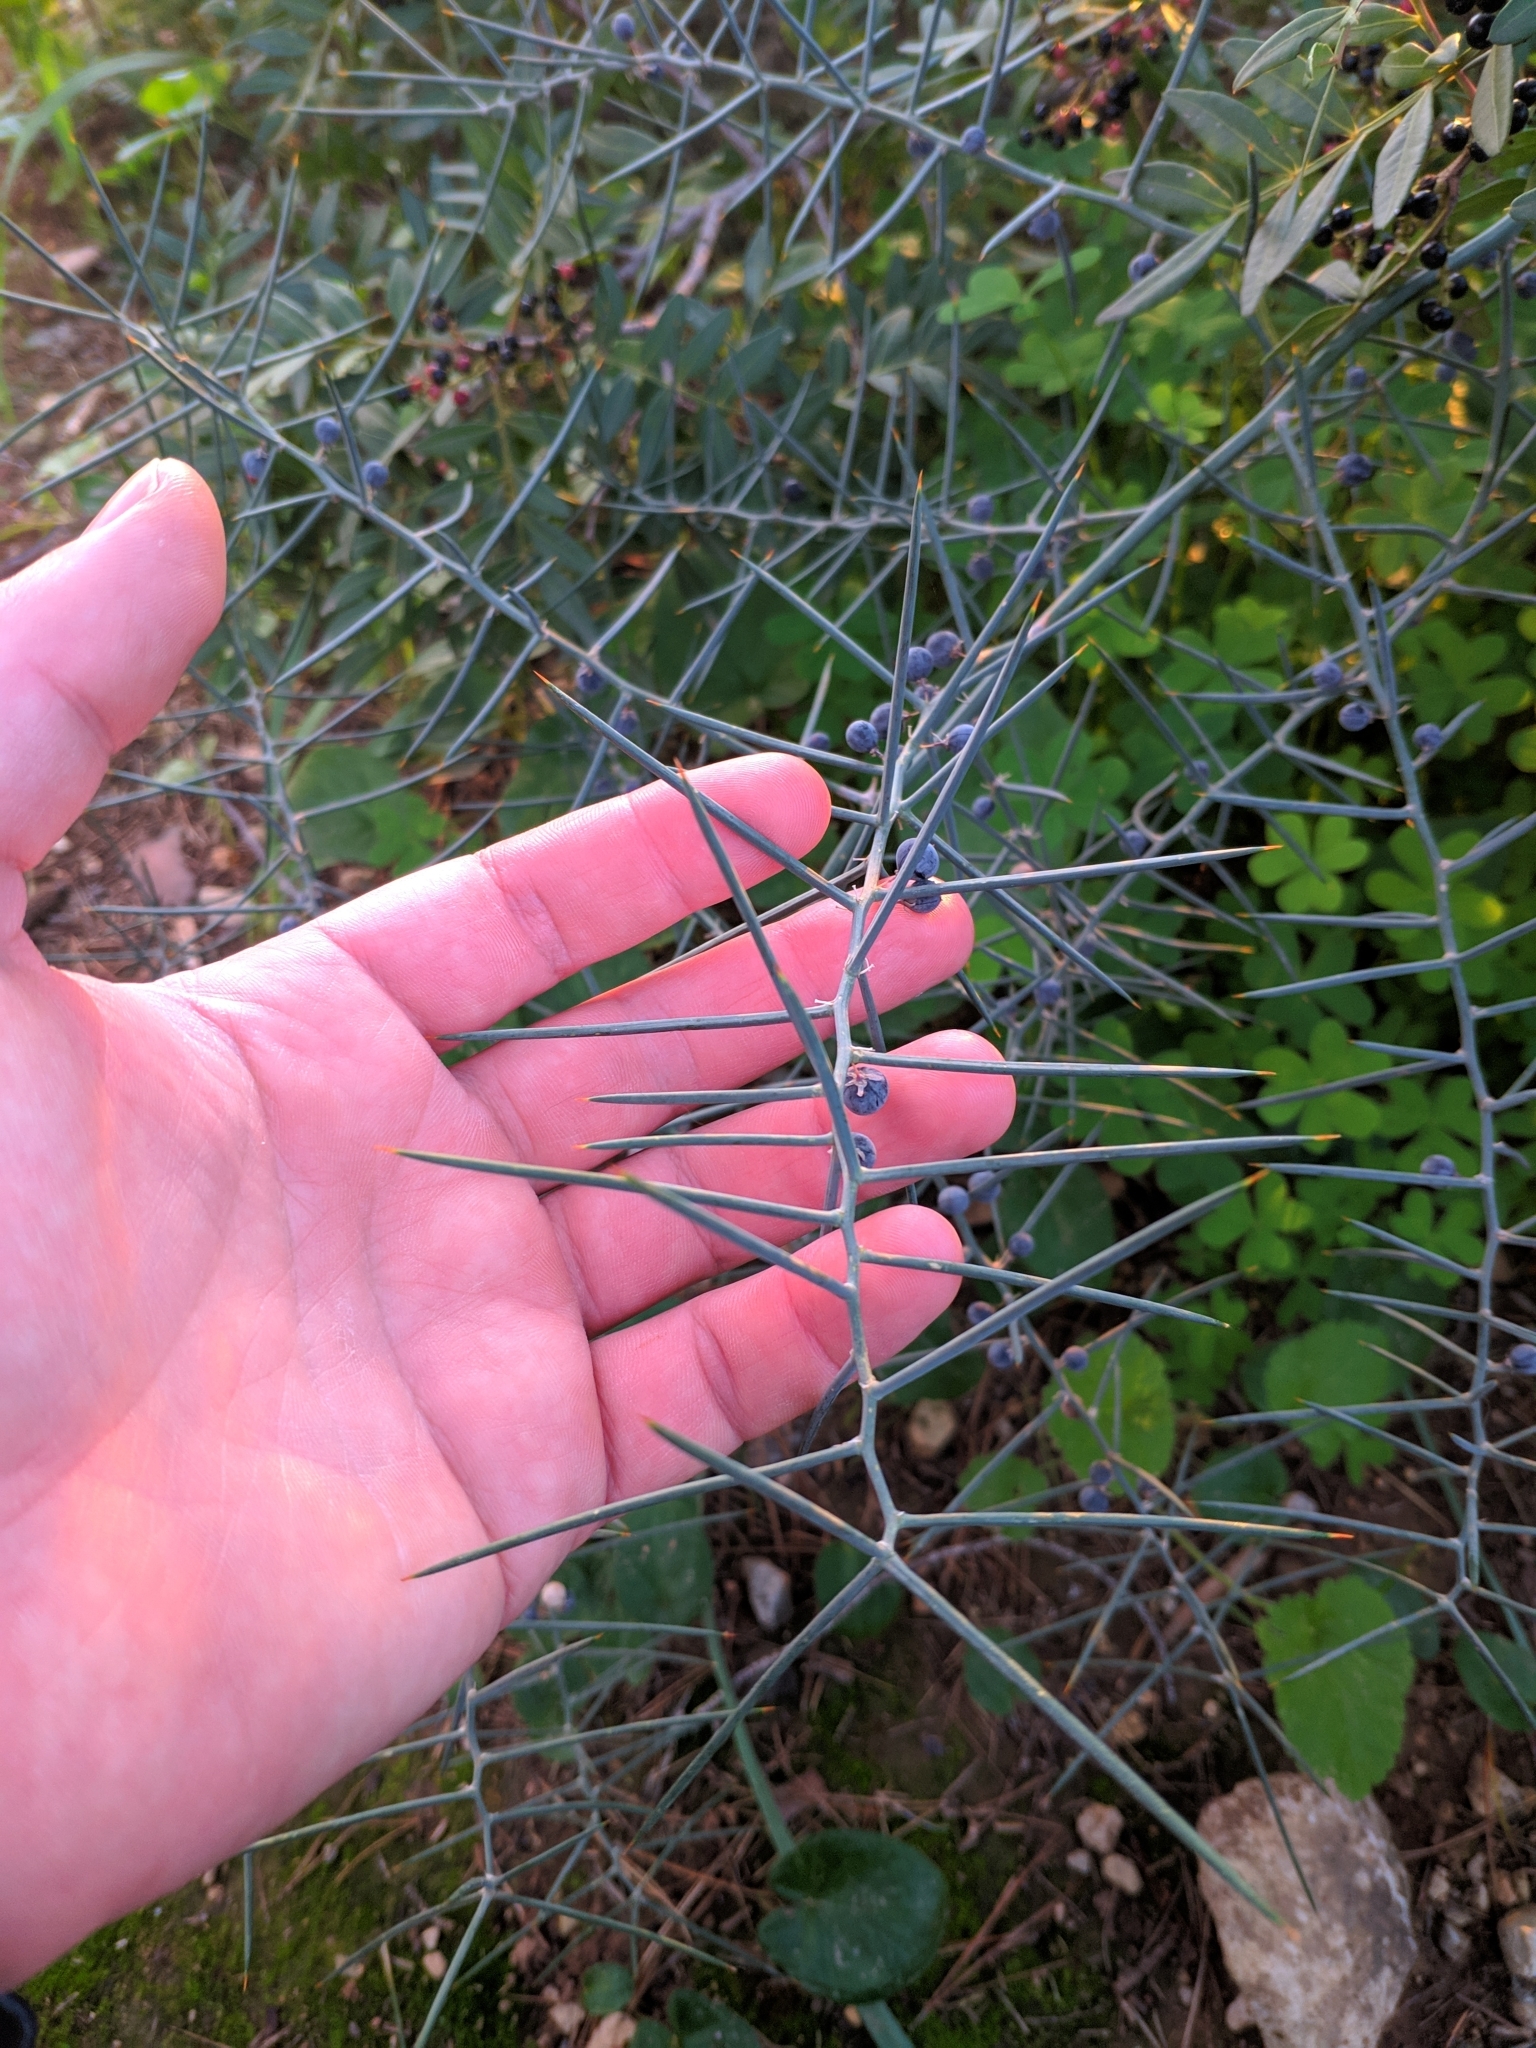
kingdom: Plantae
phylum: Tracheophyta
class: Liliopsida
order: Asparagales
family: Asparagaceae
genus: Asparagus
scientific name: Asparagus horridus
